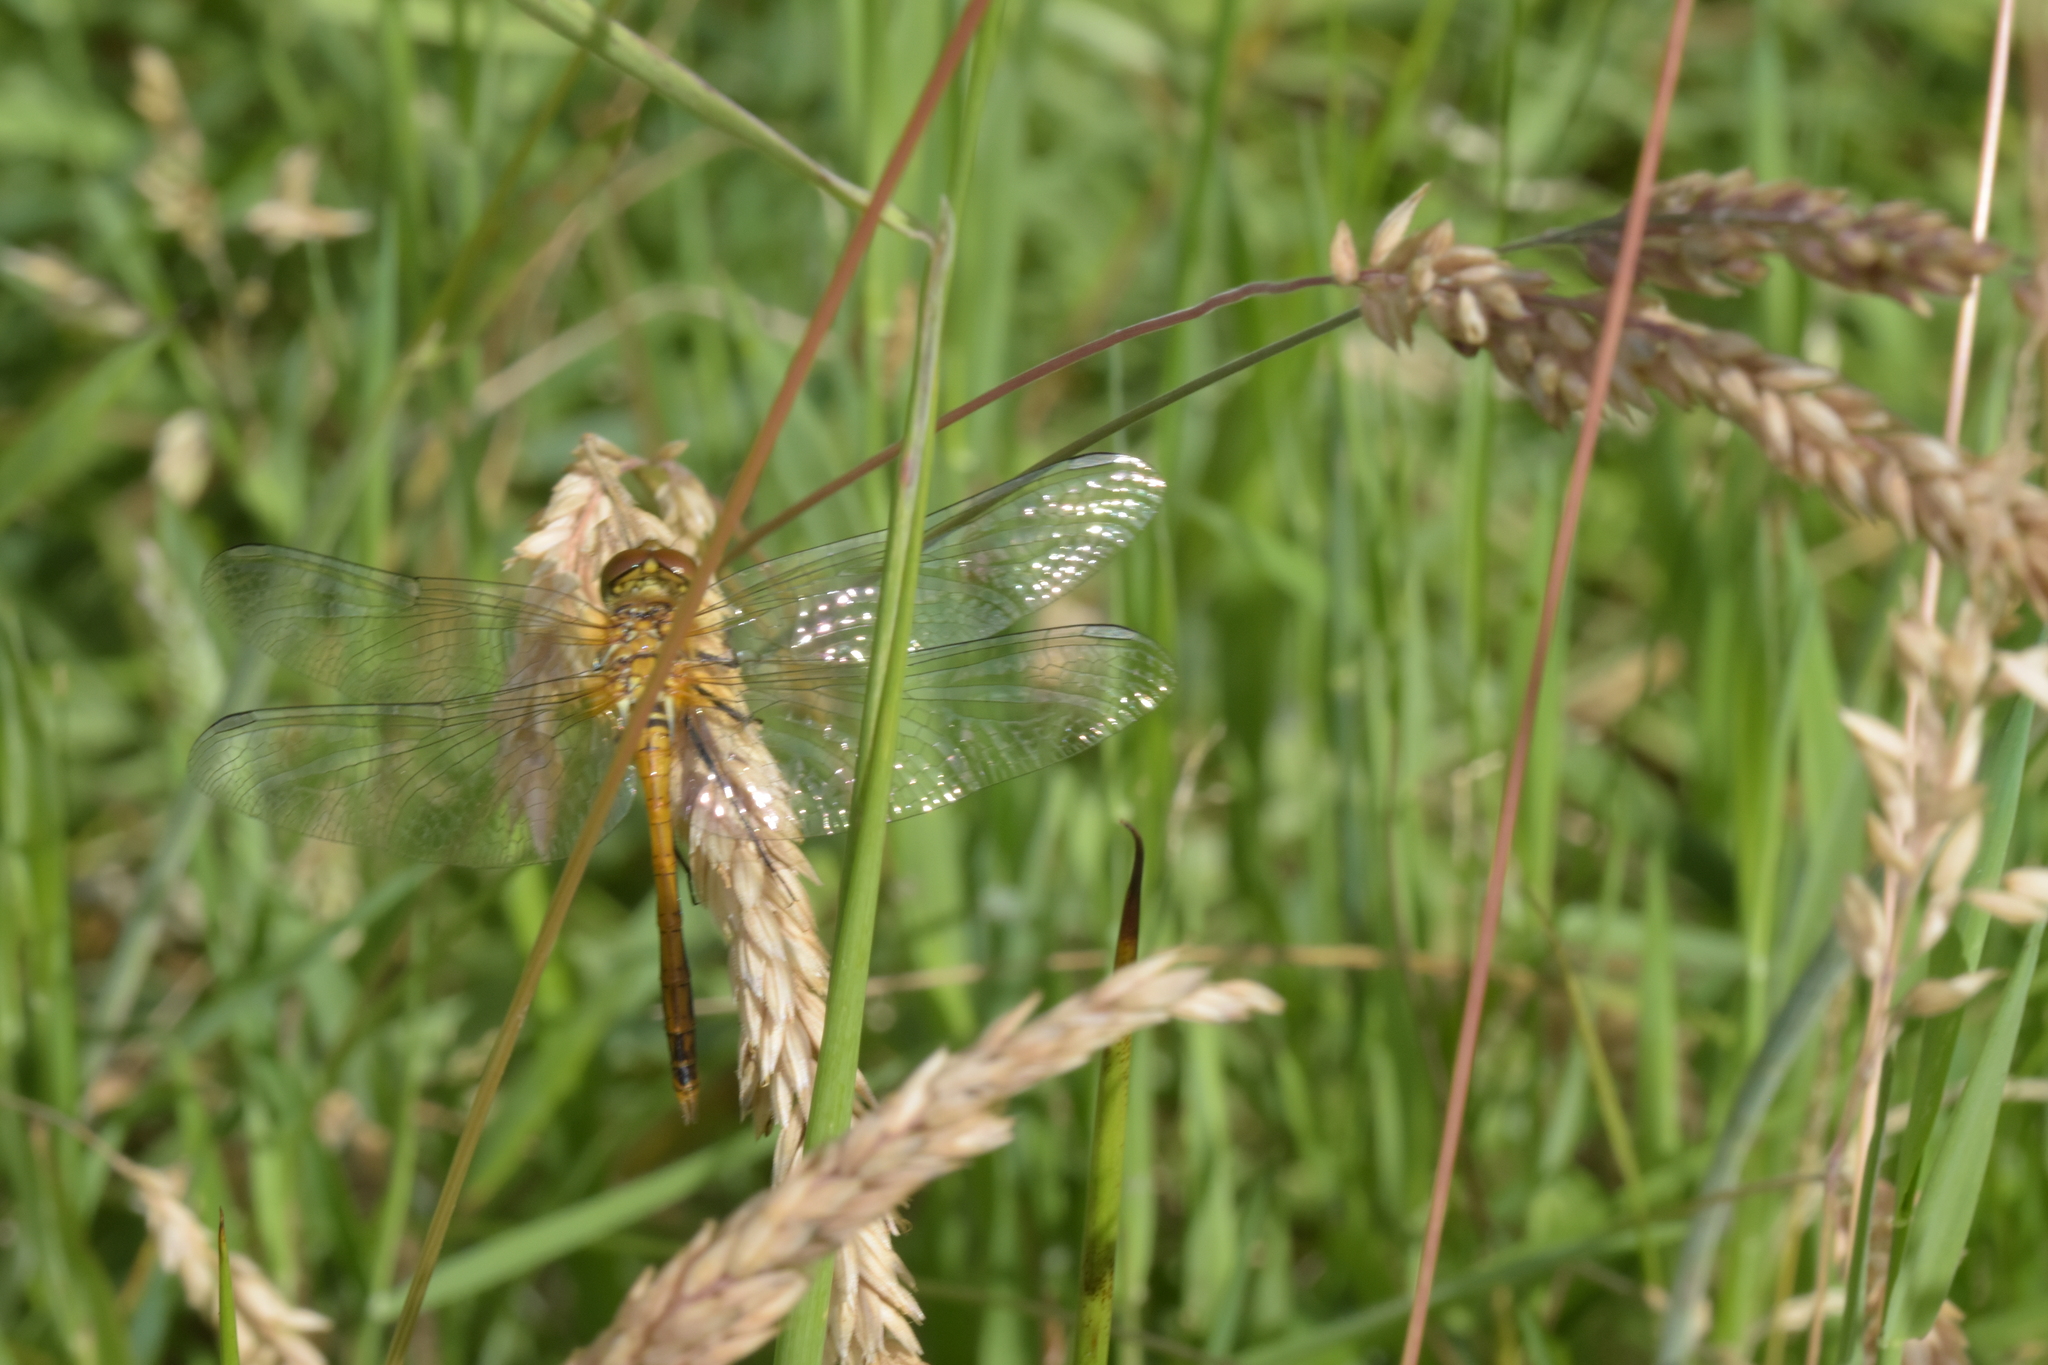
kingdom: Animalia
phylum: Arthropoda
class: Insecta
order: Odonata
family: Libellulidae
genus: Sympetrum
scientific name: Sympetrum danae
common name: Black darter
